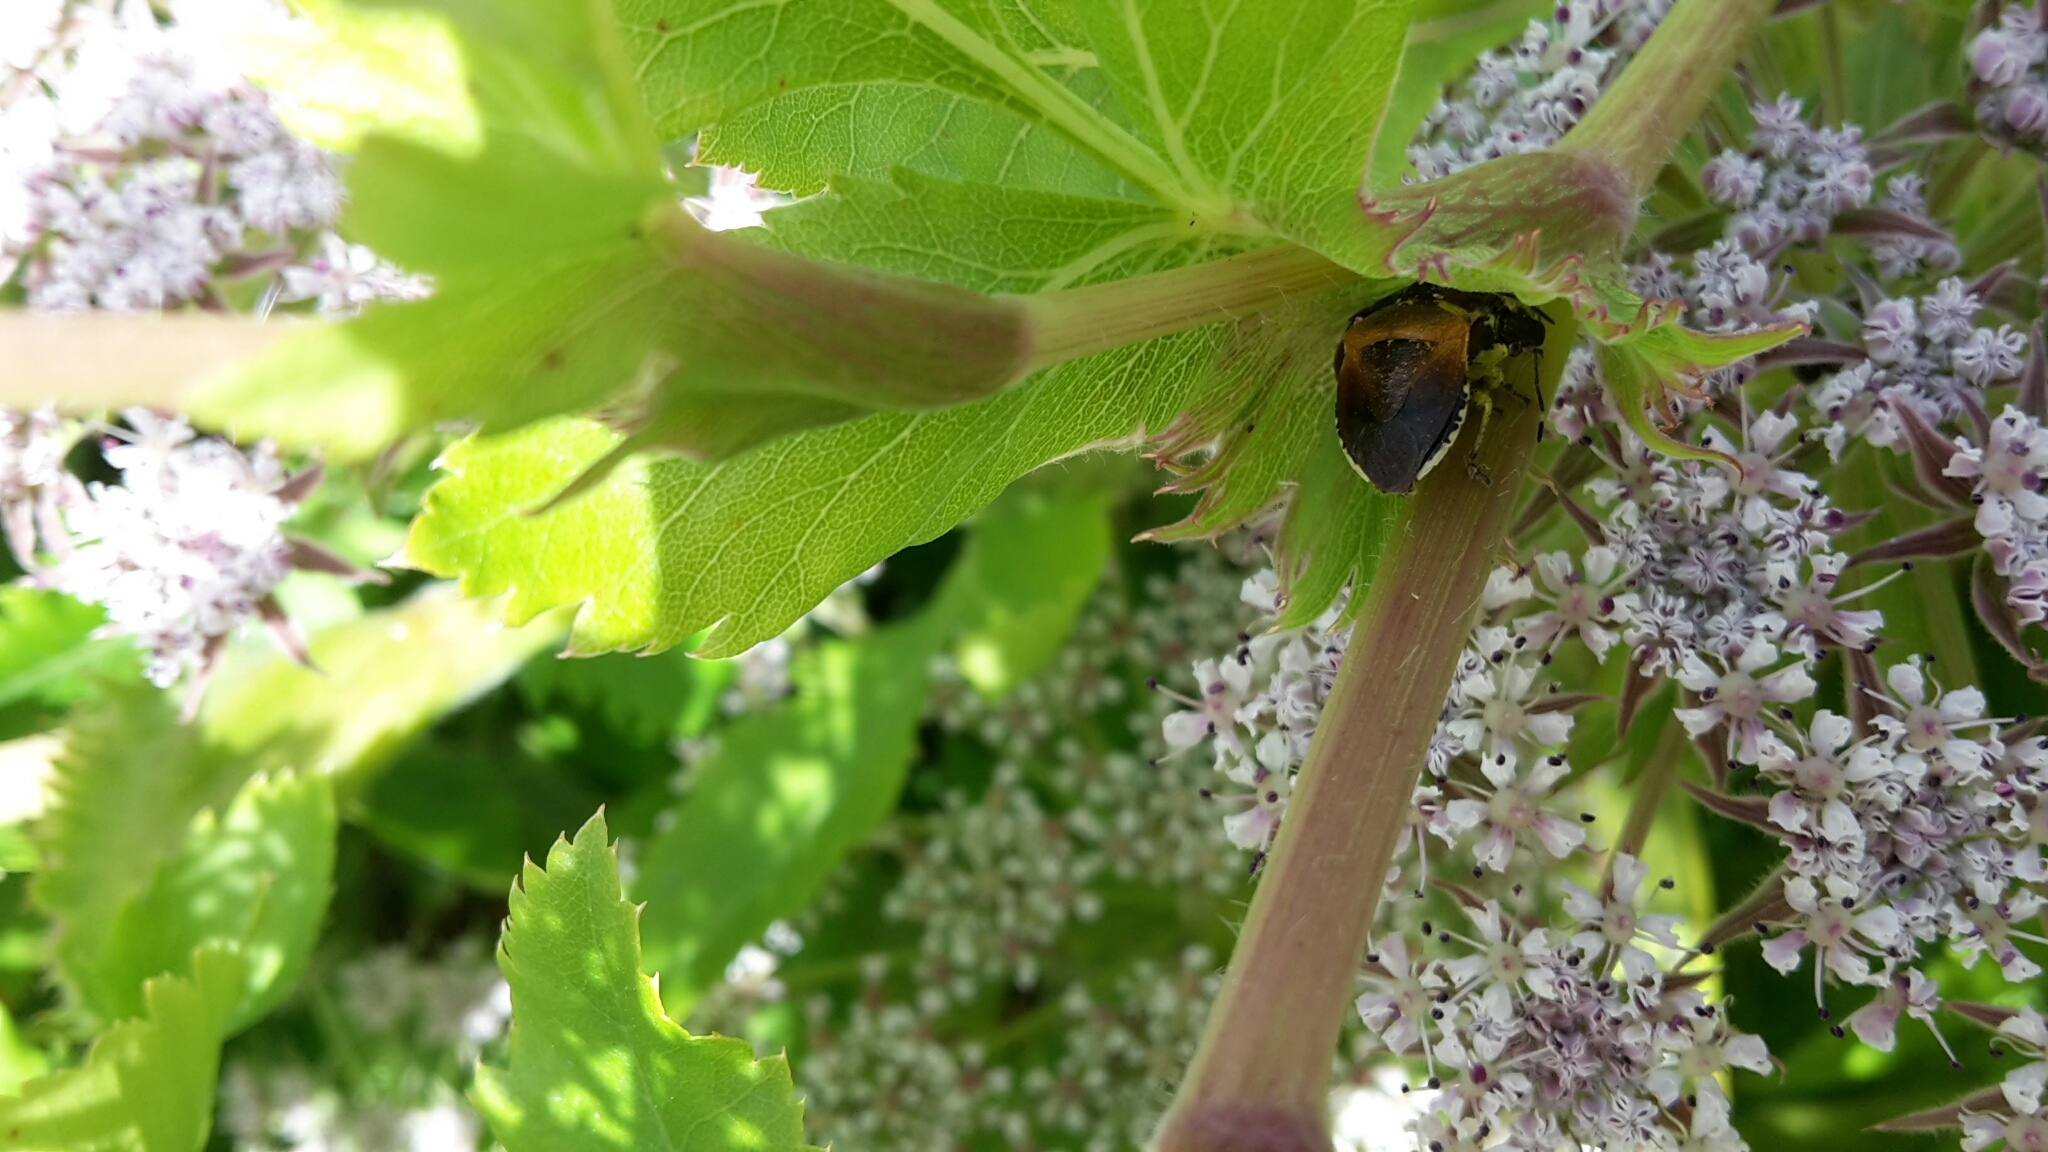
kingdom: Animalia
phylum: Arthropoda
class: Insecta
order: Hemiptera
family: Pentatomidae
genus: Monteithiella
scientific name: Monteithiella
